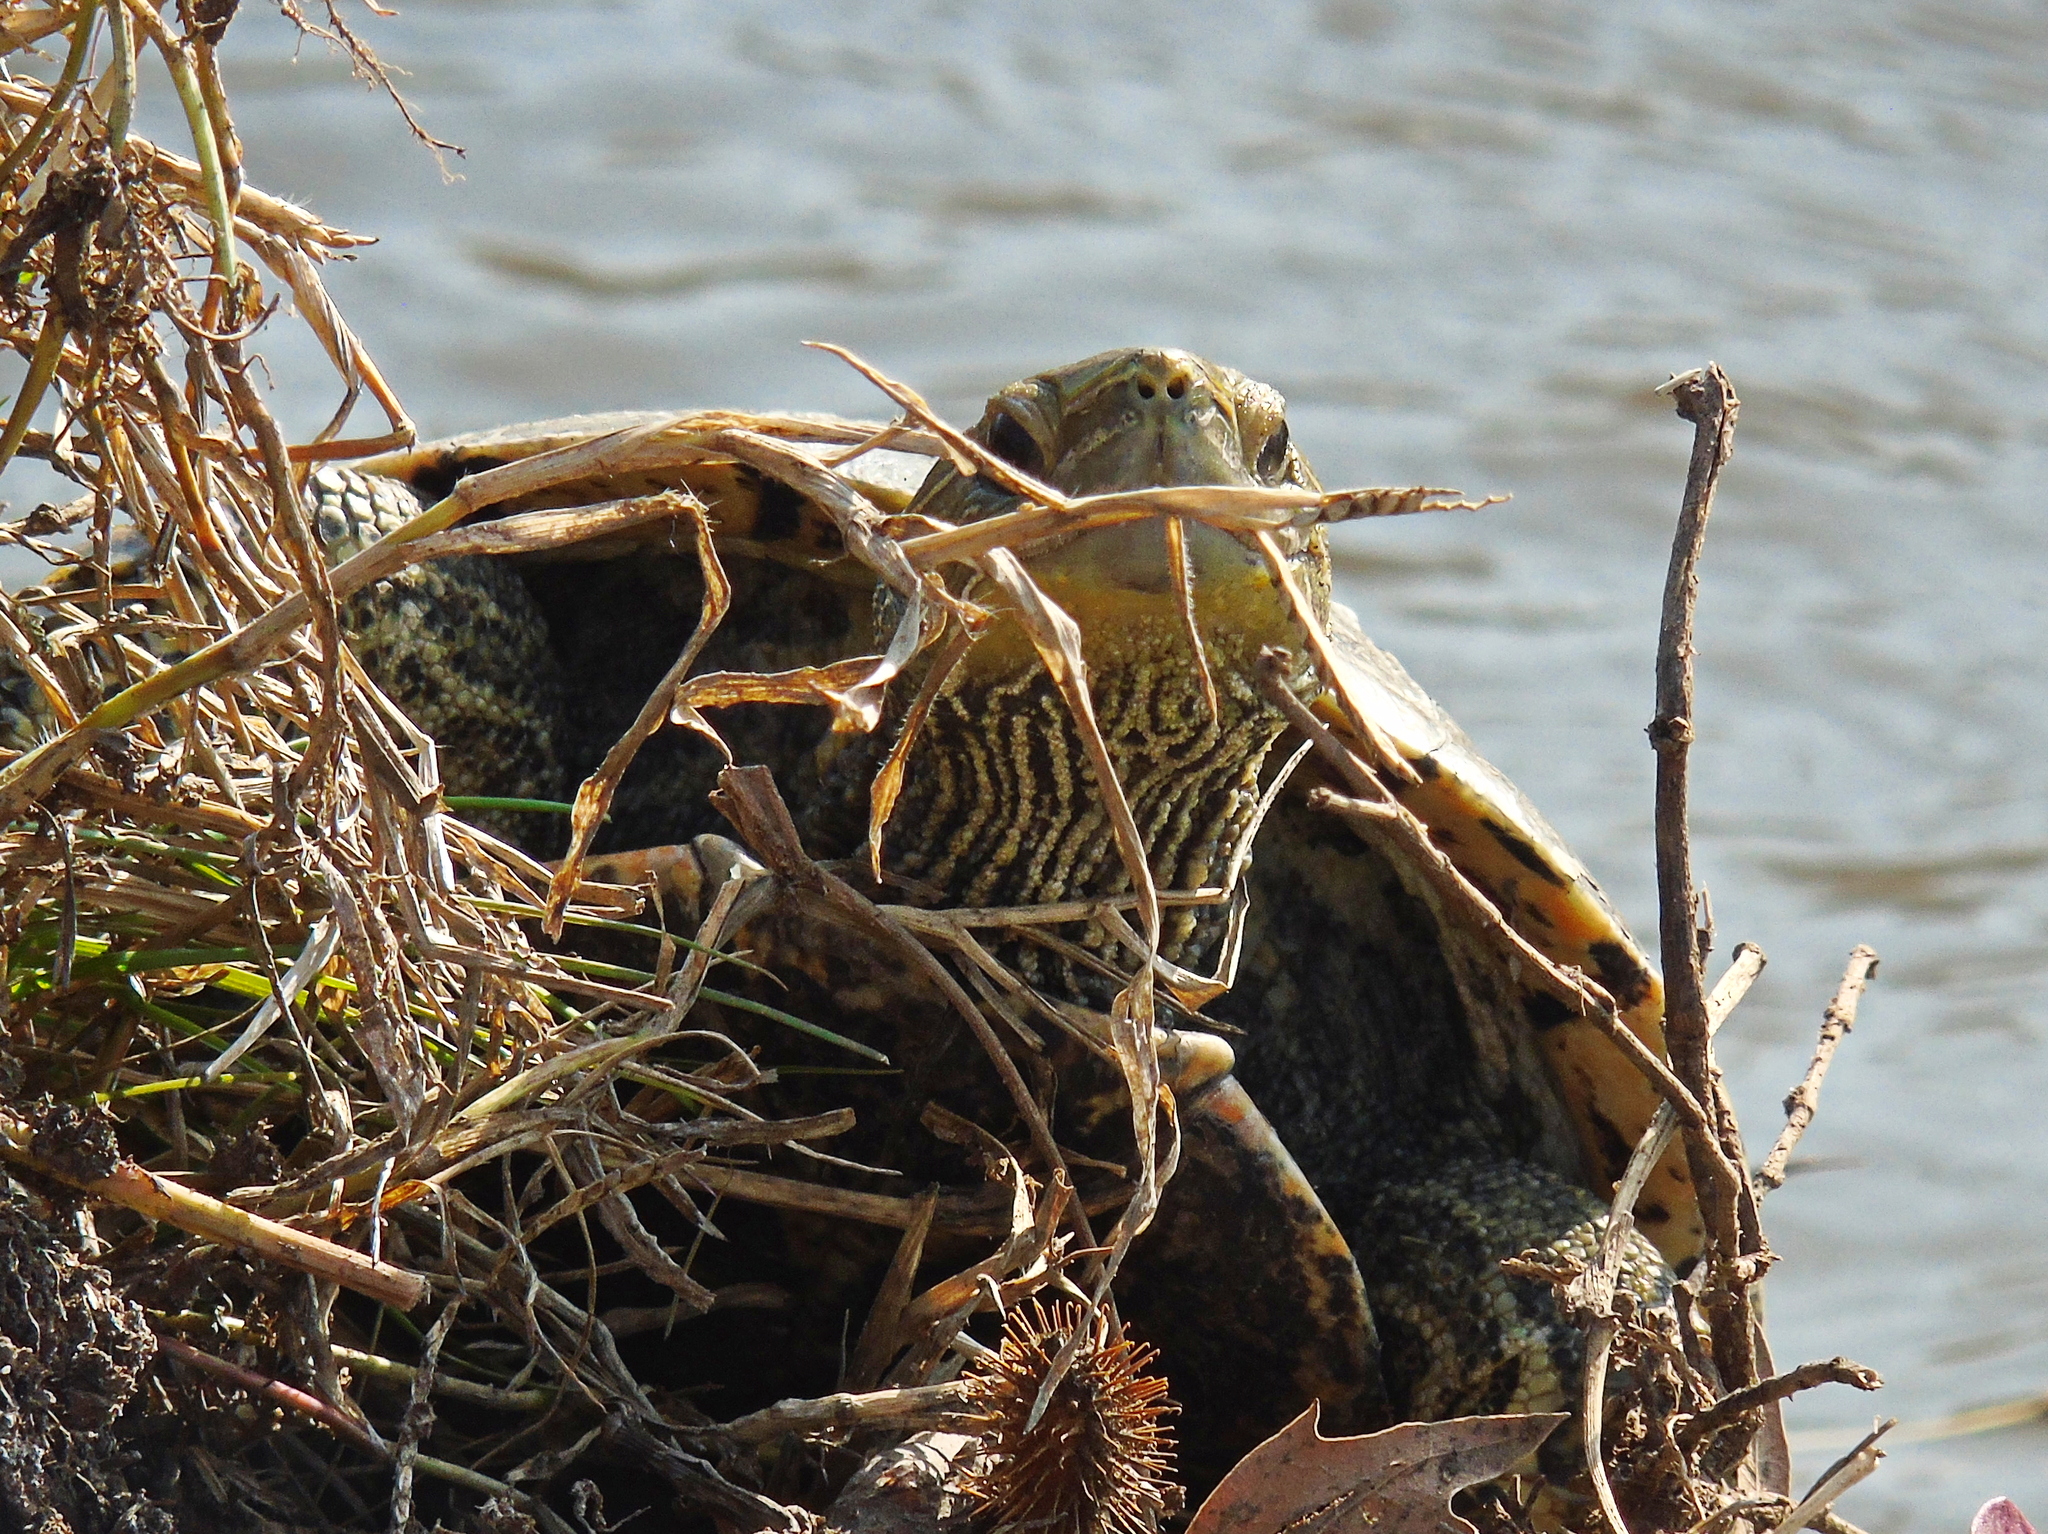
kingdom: Animalia
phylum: Chordata
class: Testudines
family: Geoemydidae
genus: Mauremys
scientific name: Mauremys caspica
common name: Caspian turtle
